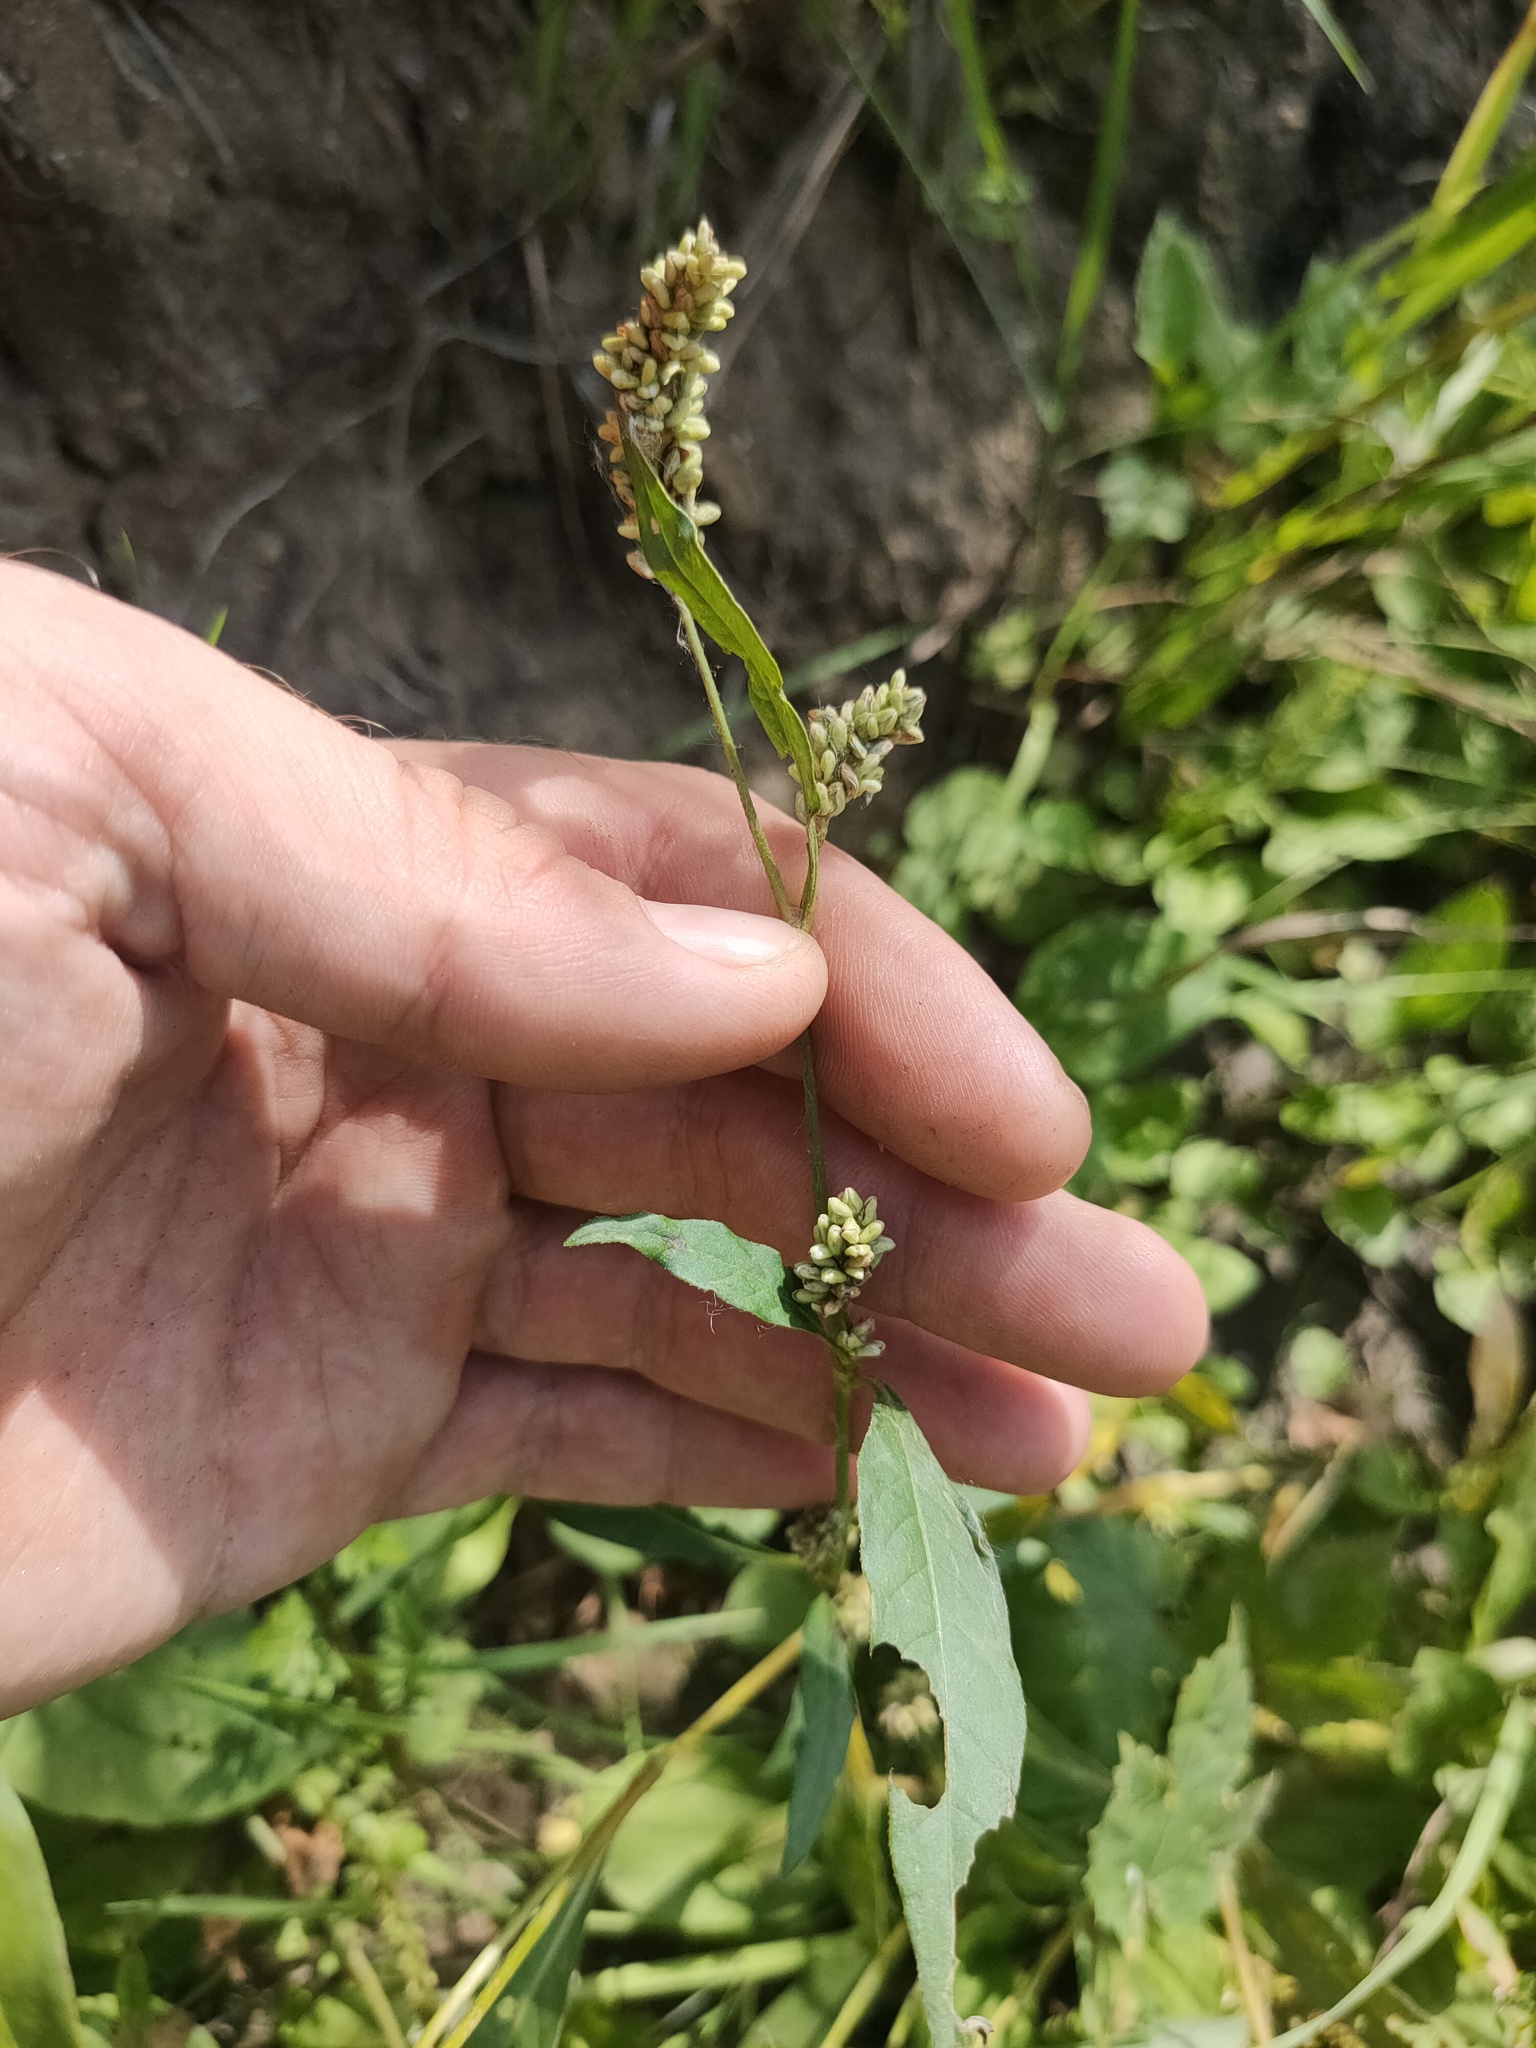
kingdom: Plantae
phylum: Tracheophyta
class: Magnoliopsida
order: Caryophyllales
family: Polygonaceae
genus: Persicaria
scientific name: Persicaria lapathifolia
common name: Curlytop knotweed
